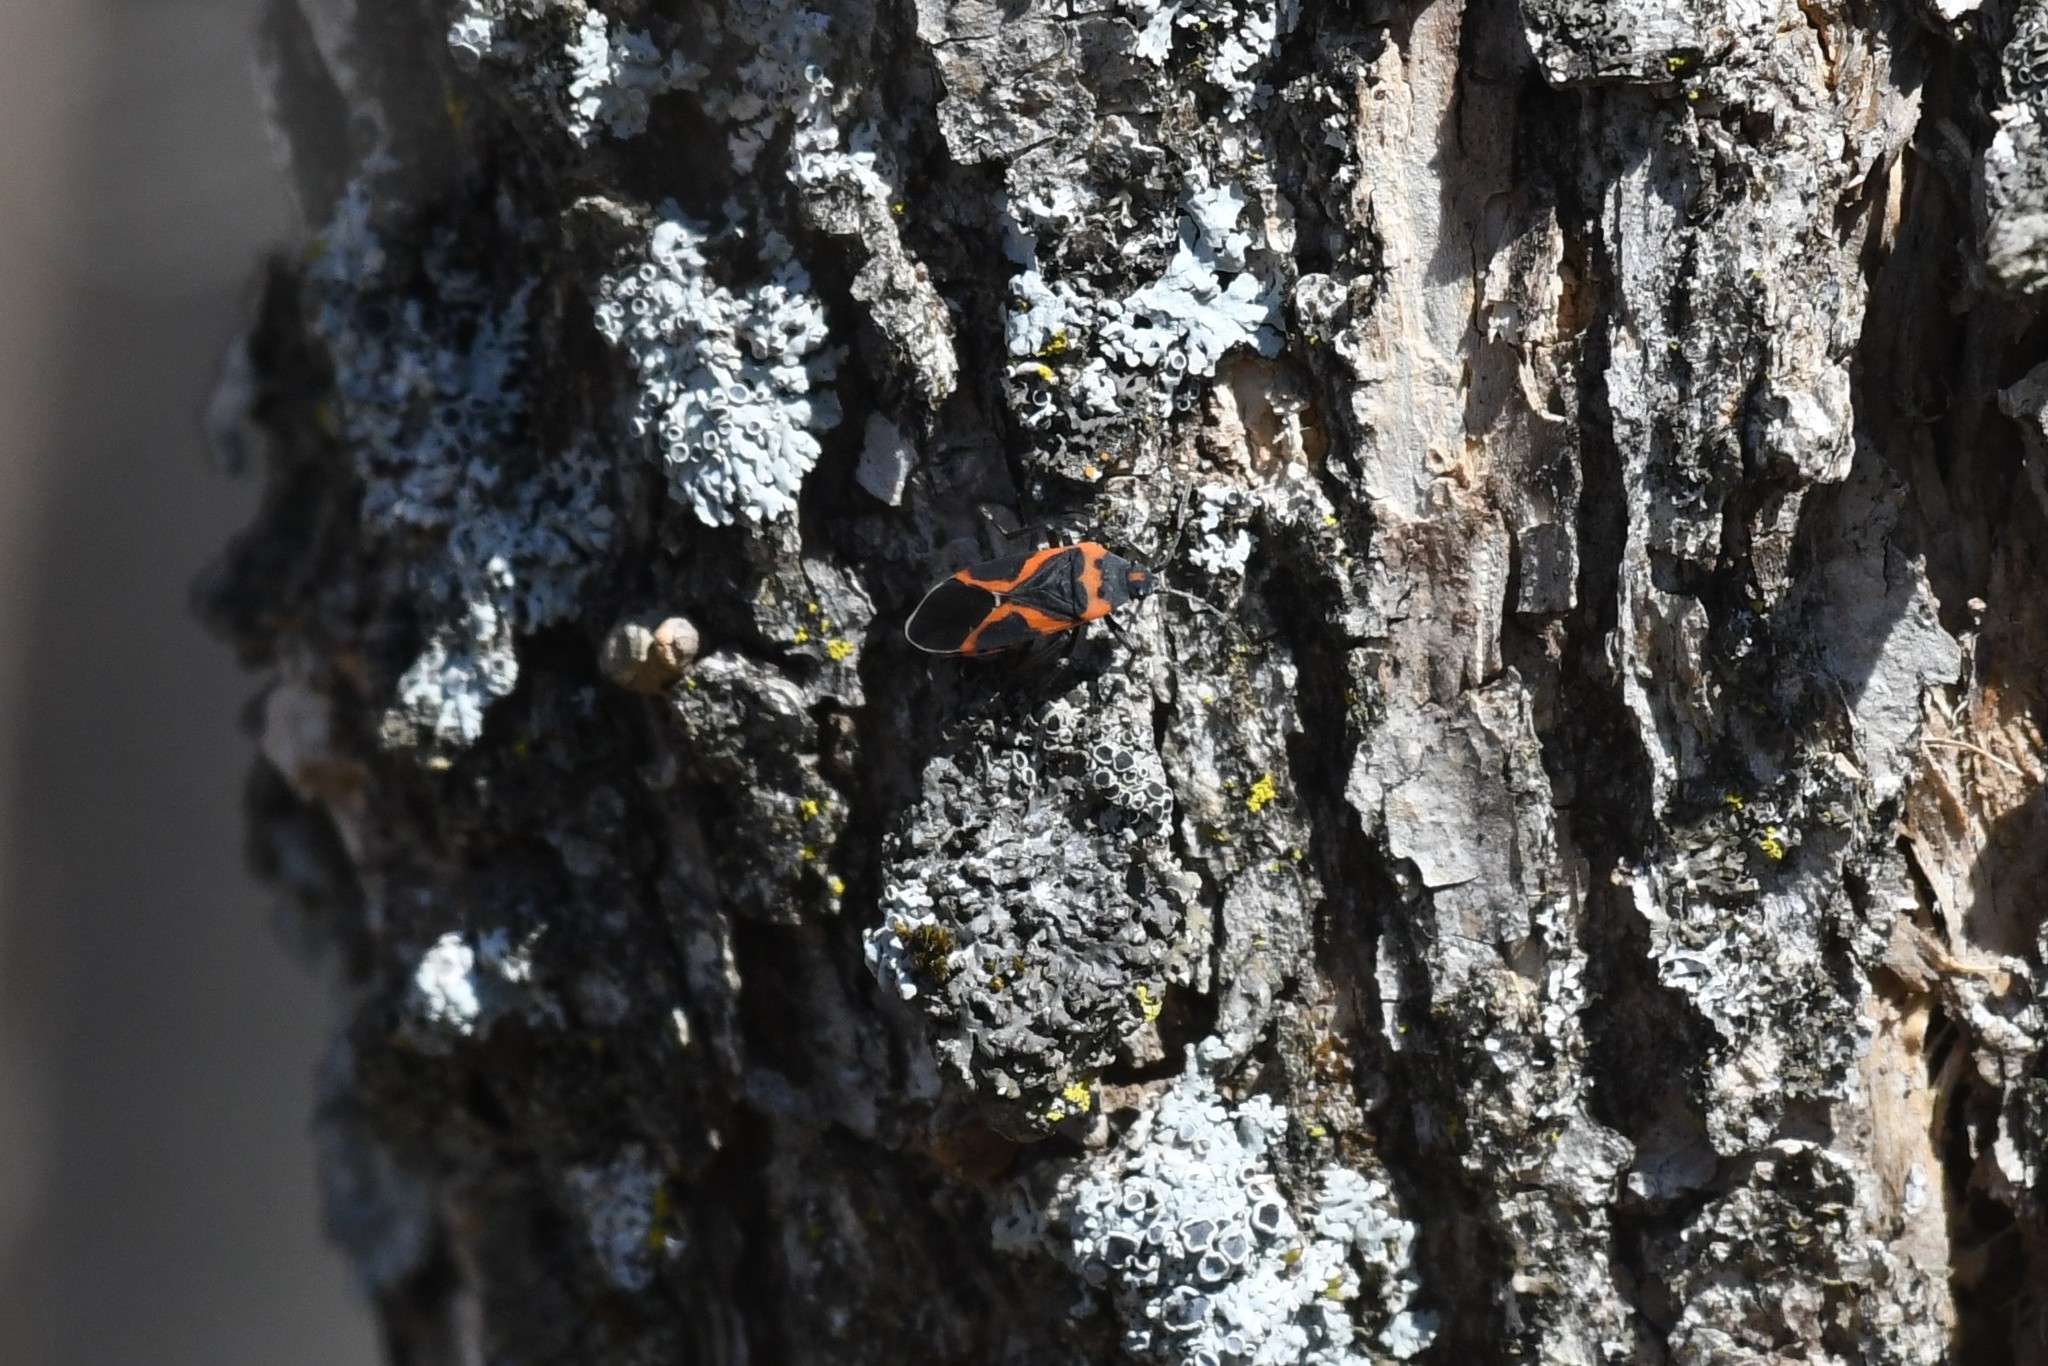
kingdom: Animalia
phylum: Arthropoda
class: Insecta
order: Hemiptera
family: Lygaeidae
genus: Lygaeus
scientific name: Lygaeus kalmii
